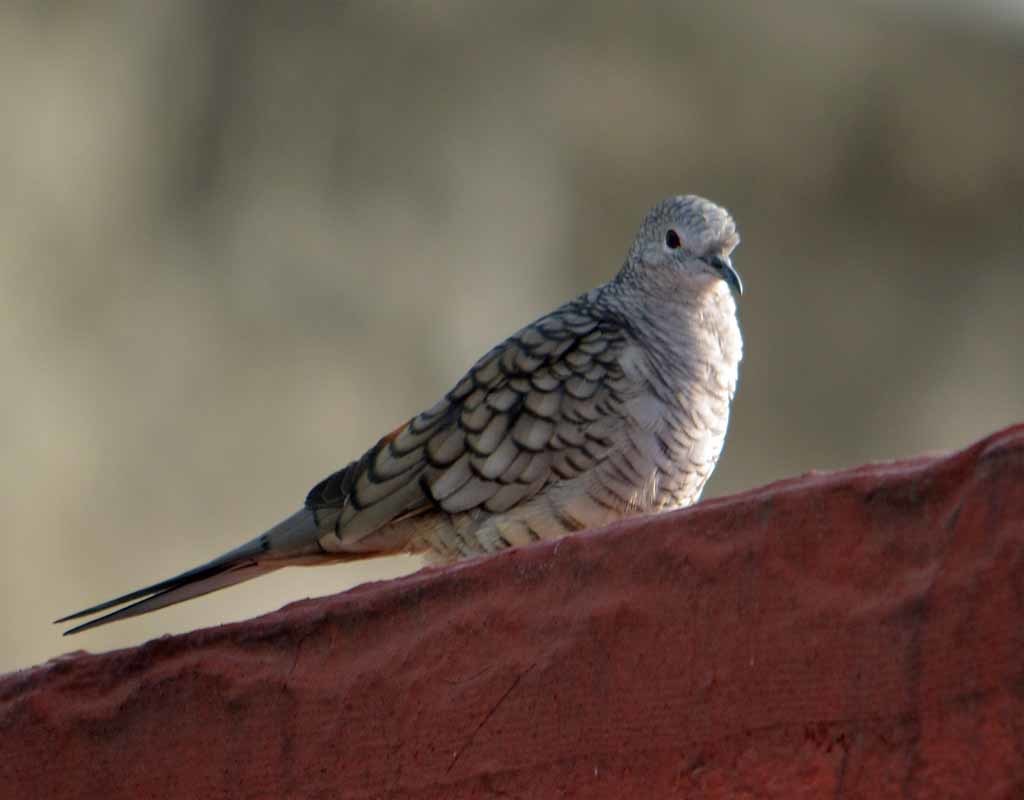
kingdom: Animalia
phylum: Chordata
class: Aves
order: Columbiformes
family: Columbidae
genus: Columbina
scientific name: Columbina inca
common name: Inca dove
